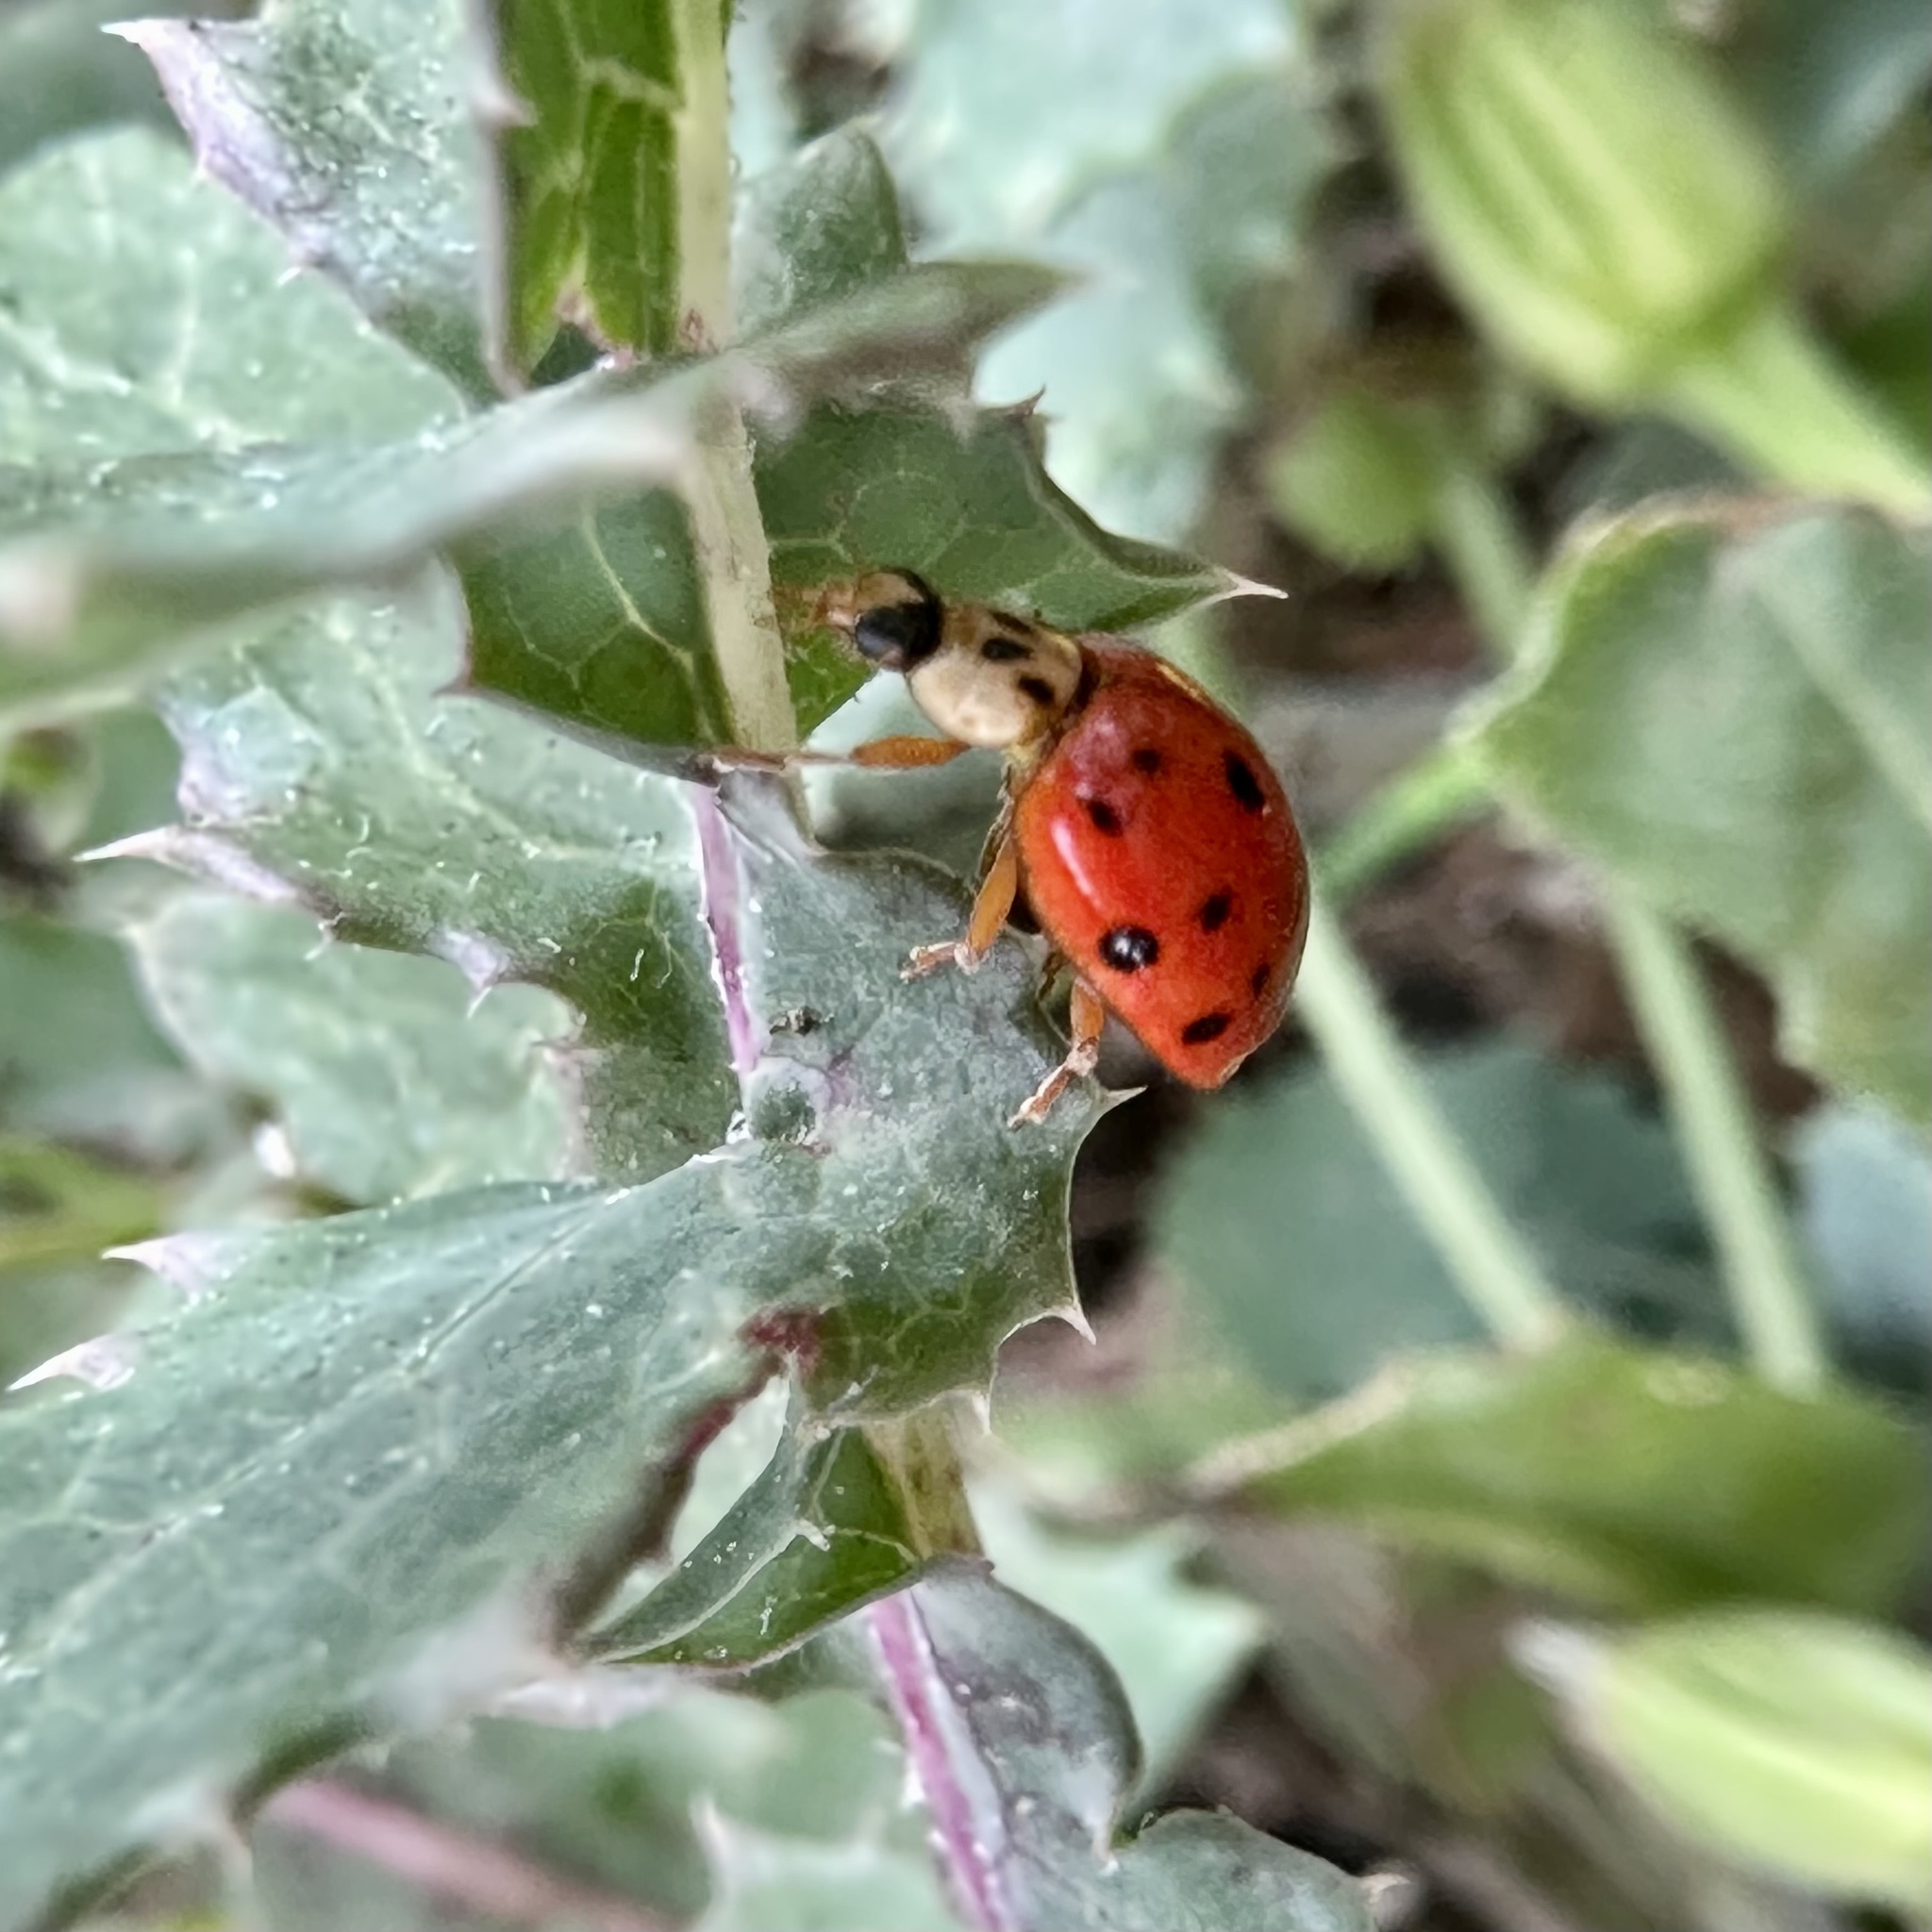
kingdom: Animalia
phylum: Arthropoda
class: Insecta
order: Coleoptera
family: Coccinellidae
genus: Harmonia
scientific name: Harmonia axyridis
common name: Harlequin ladybird
